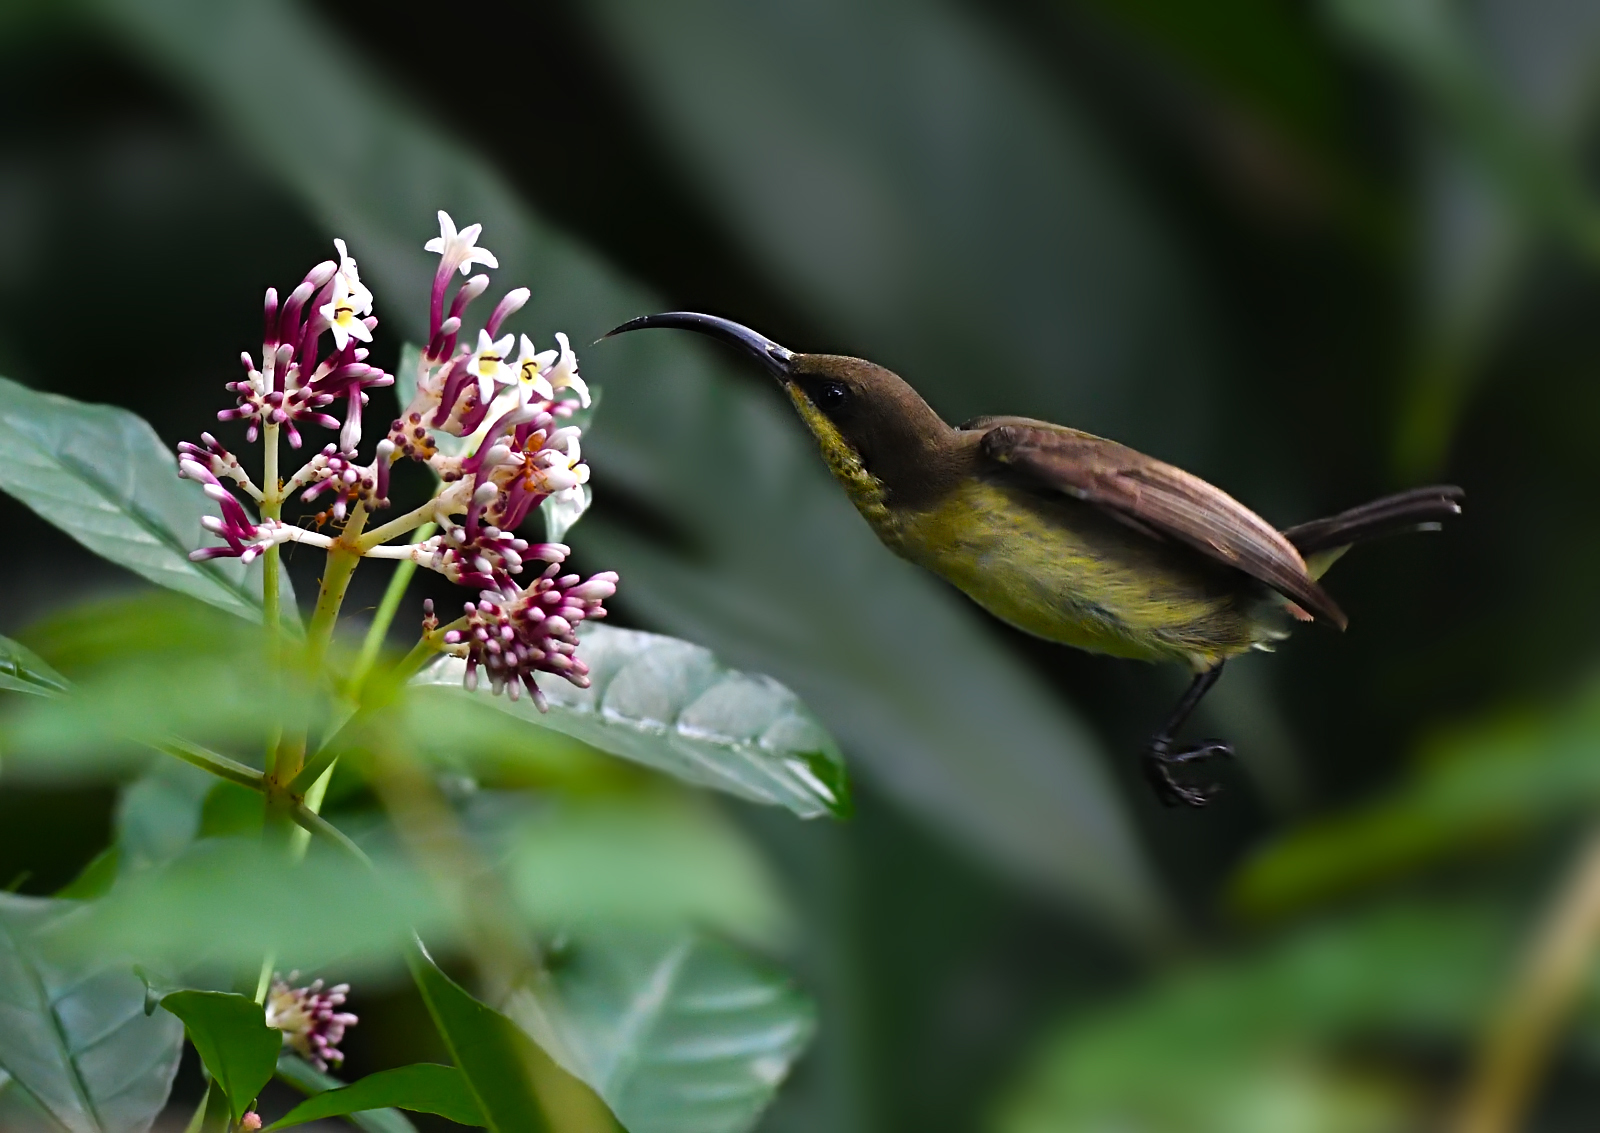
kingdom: Animalia
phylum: Chordata
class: Aves
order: Passeriformes
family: Nectariniidae
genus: Cinnyris
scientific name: Cinnyris lotenius
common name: Loten's sunbird
